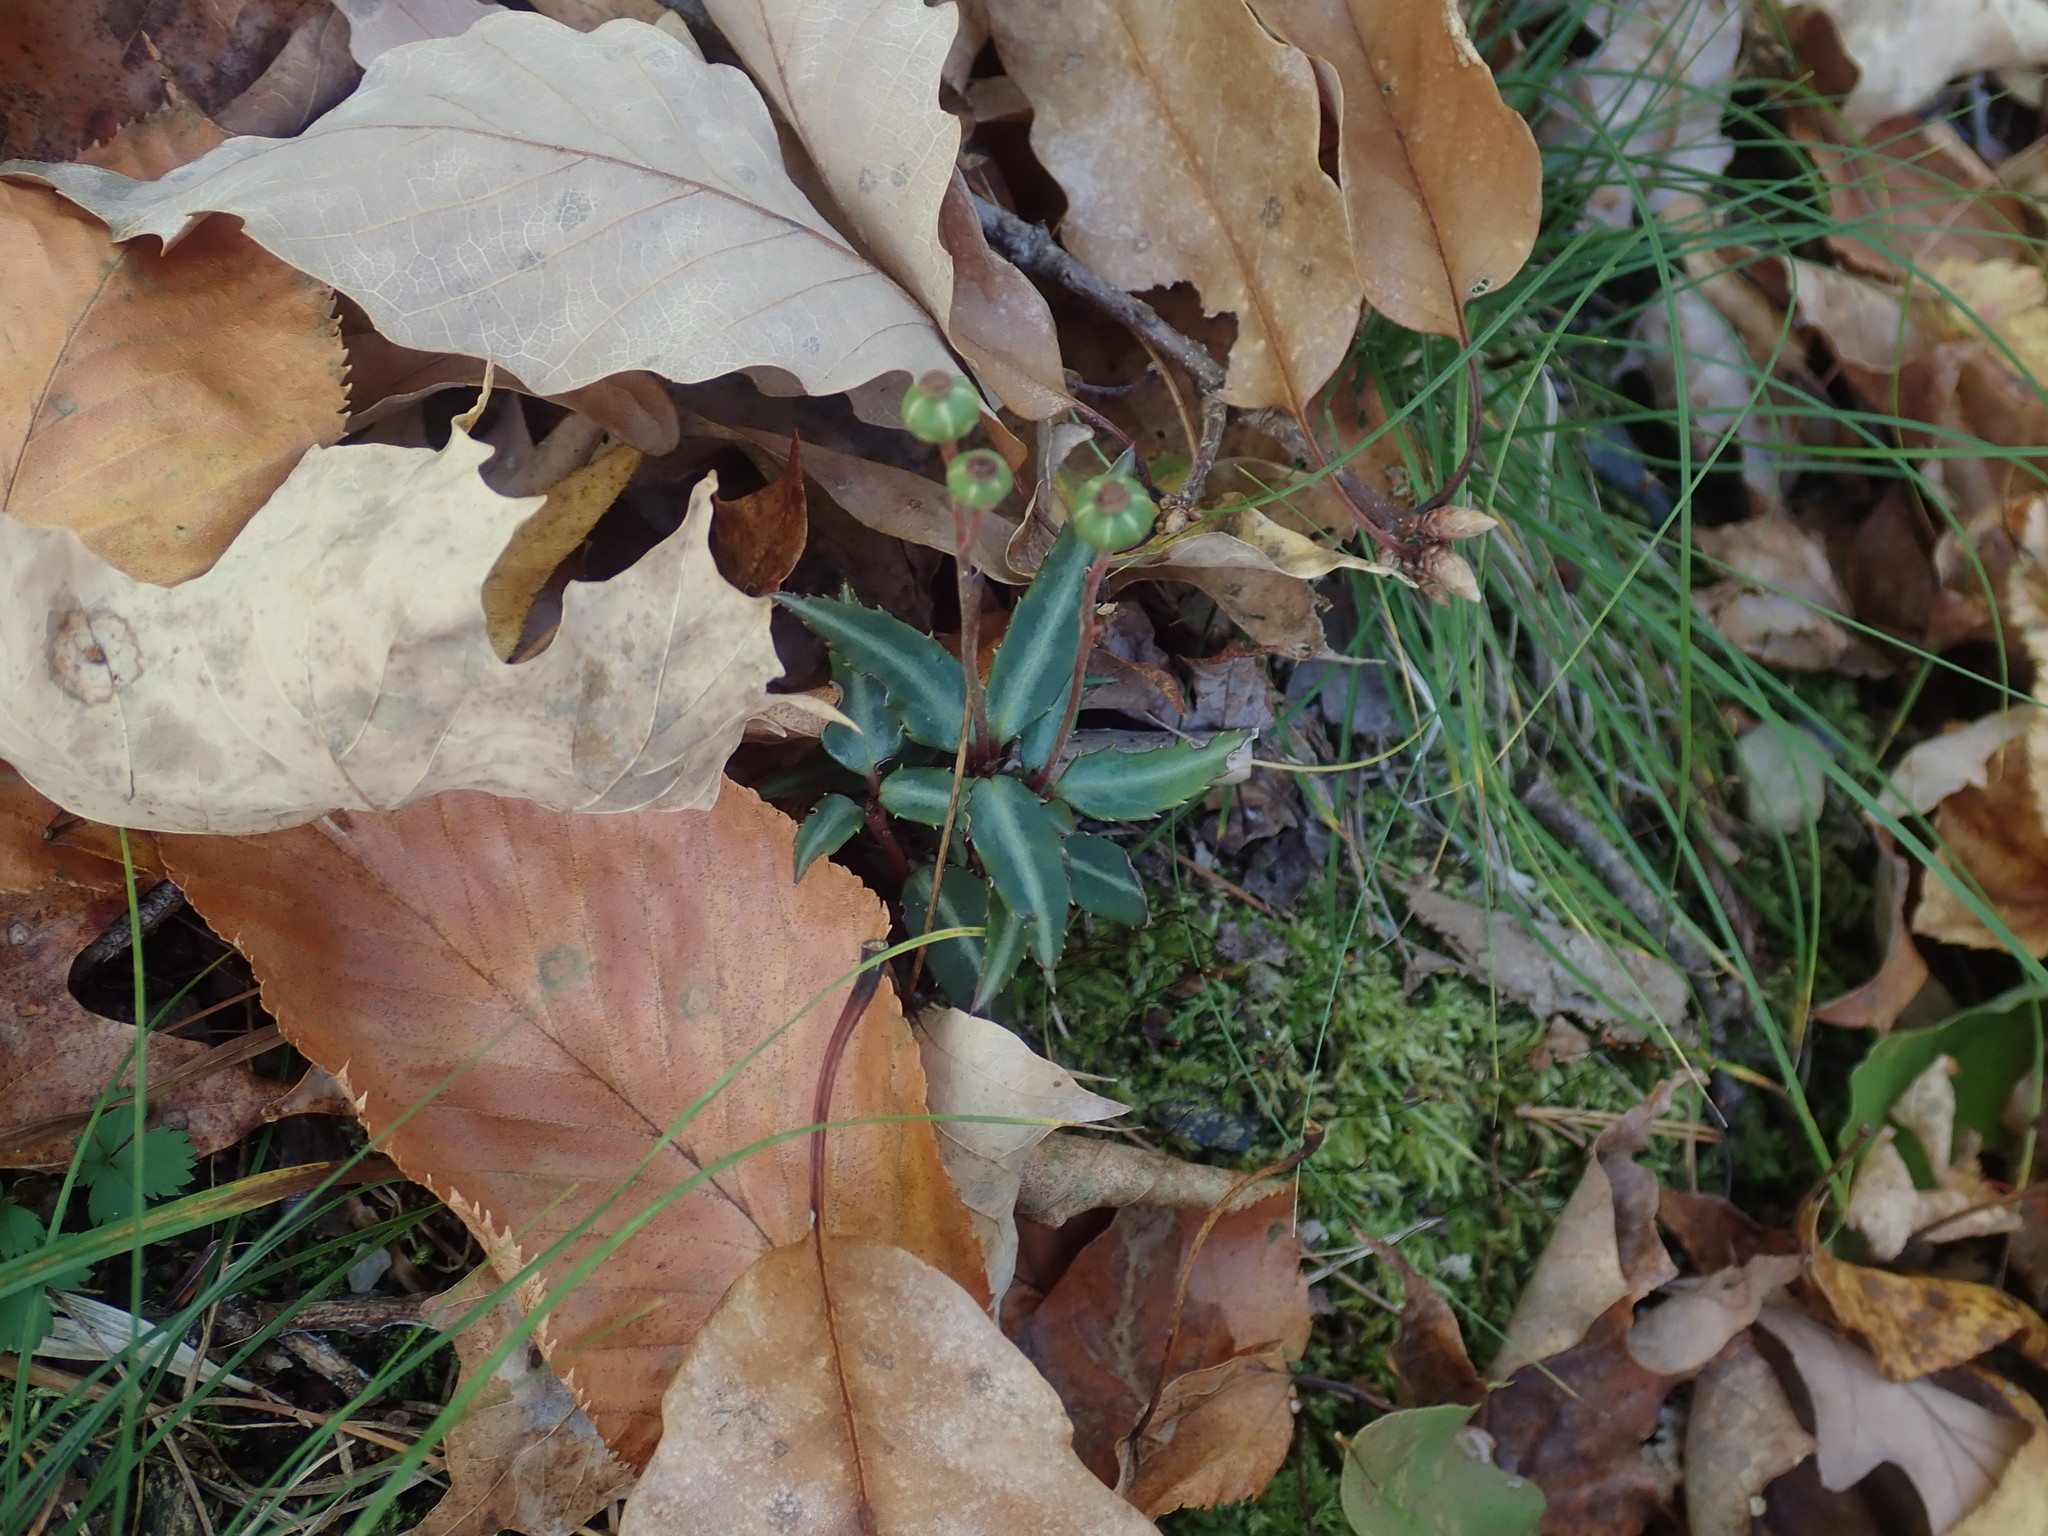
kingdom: Plantae
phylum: Tracheophyta
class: Magnoliopsida
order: Ericales
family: Ericaceae
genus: Chimaphila
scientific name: Chimaphila maculata
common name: Spotted pipsissewa
